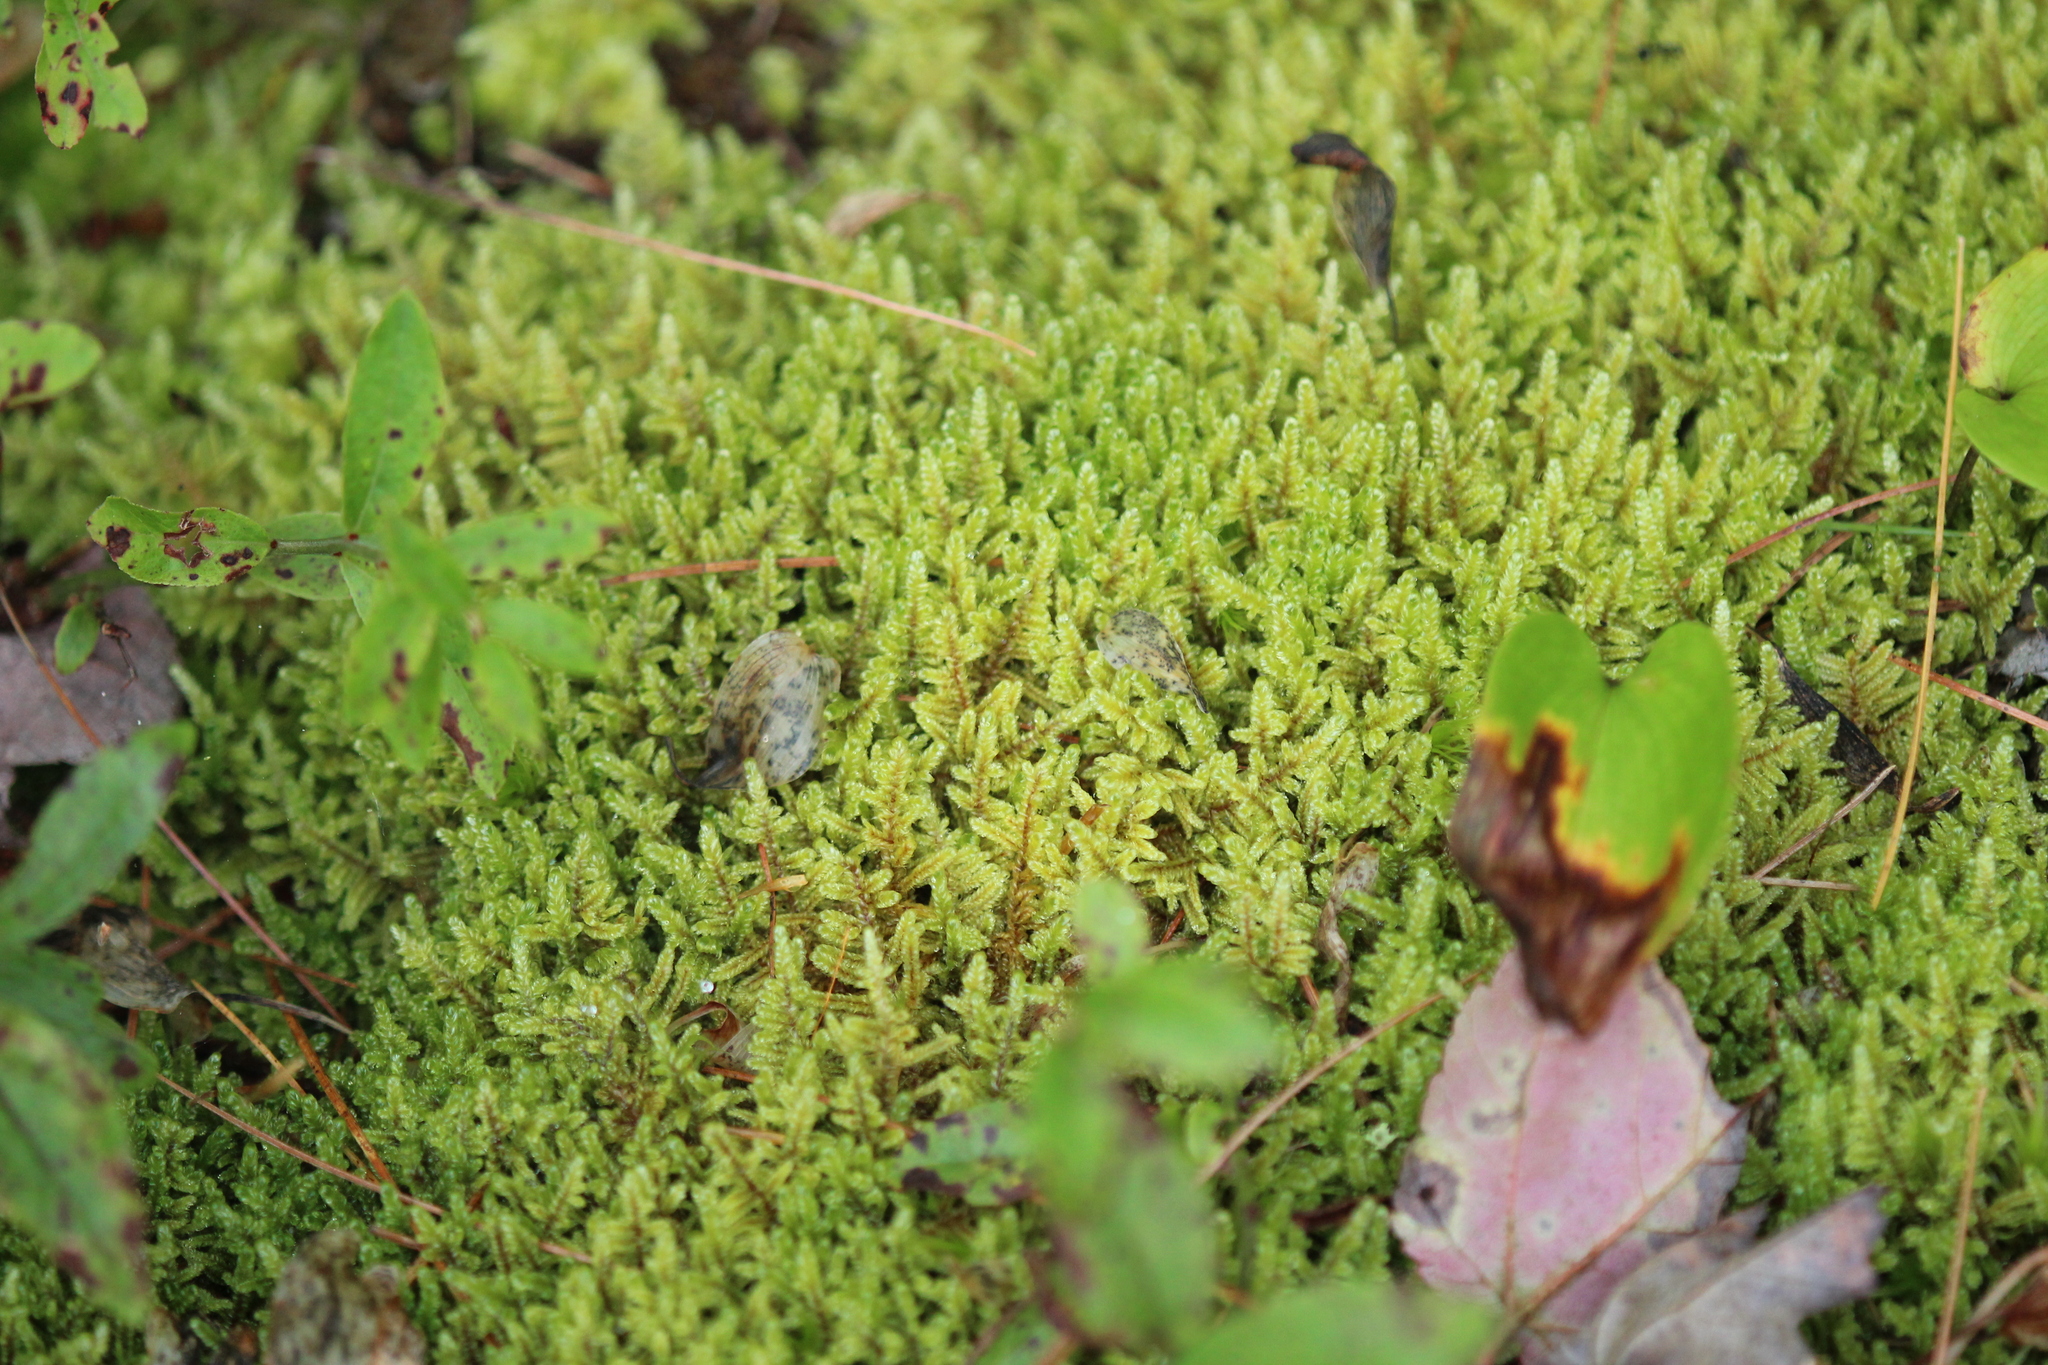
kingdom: Plantae
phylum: Bryophyta
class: Bryopsida
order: Hypnales
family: Callicladiaceae
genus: Callicladium
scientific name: Callicladium imponens
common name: Brocade moss
